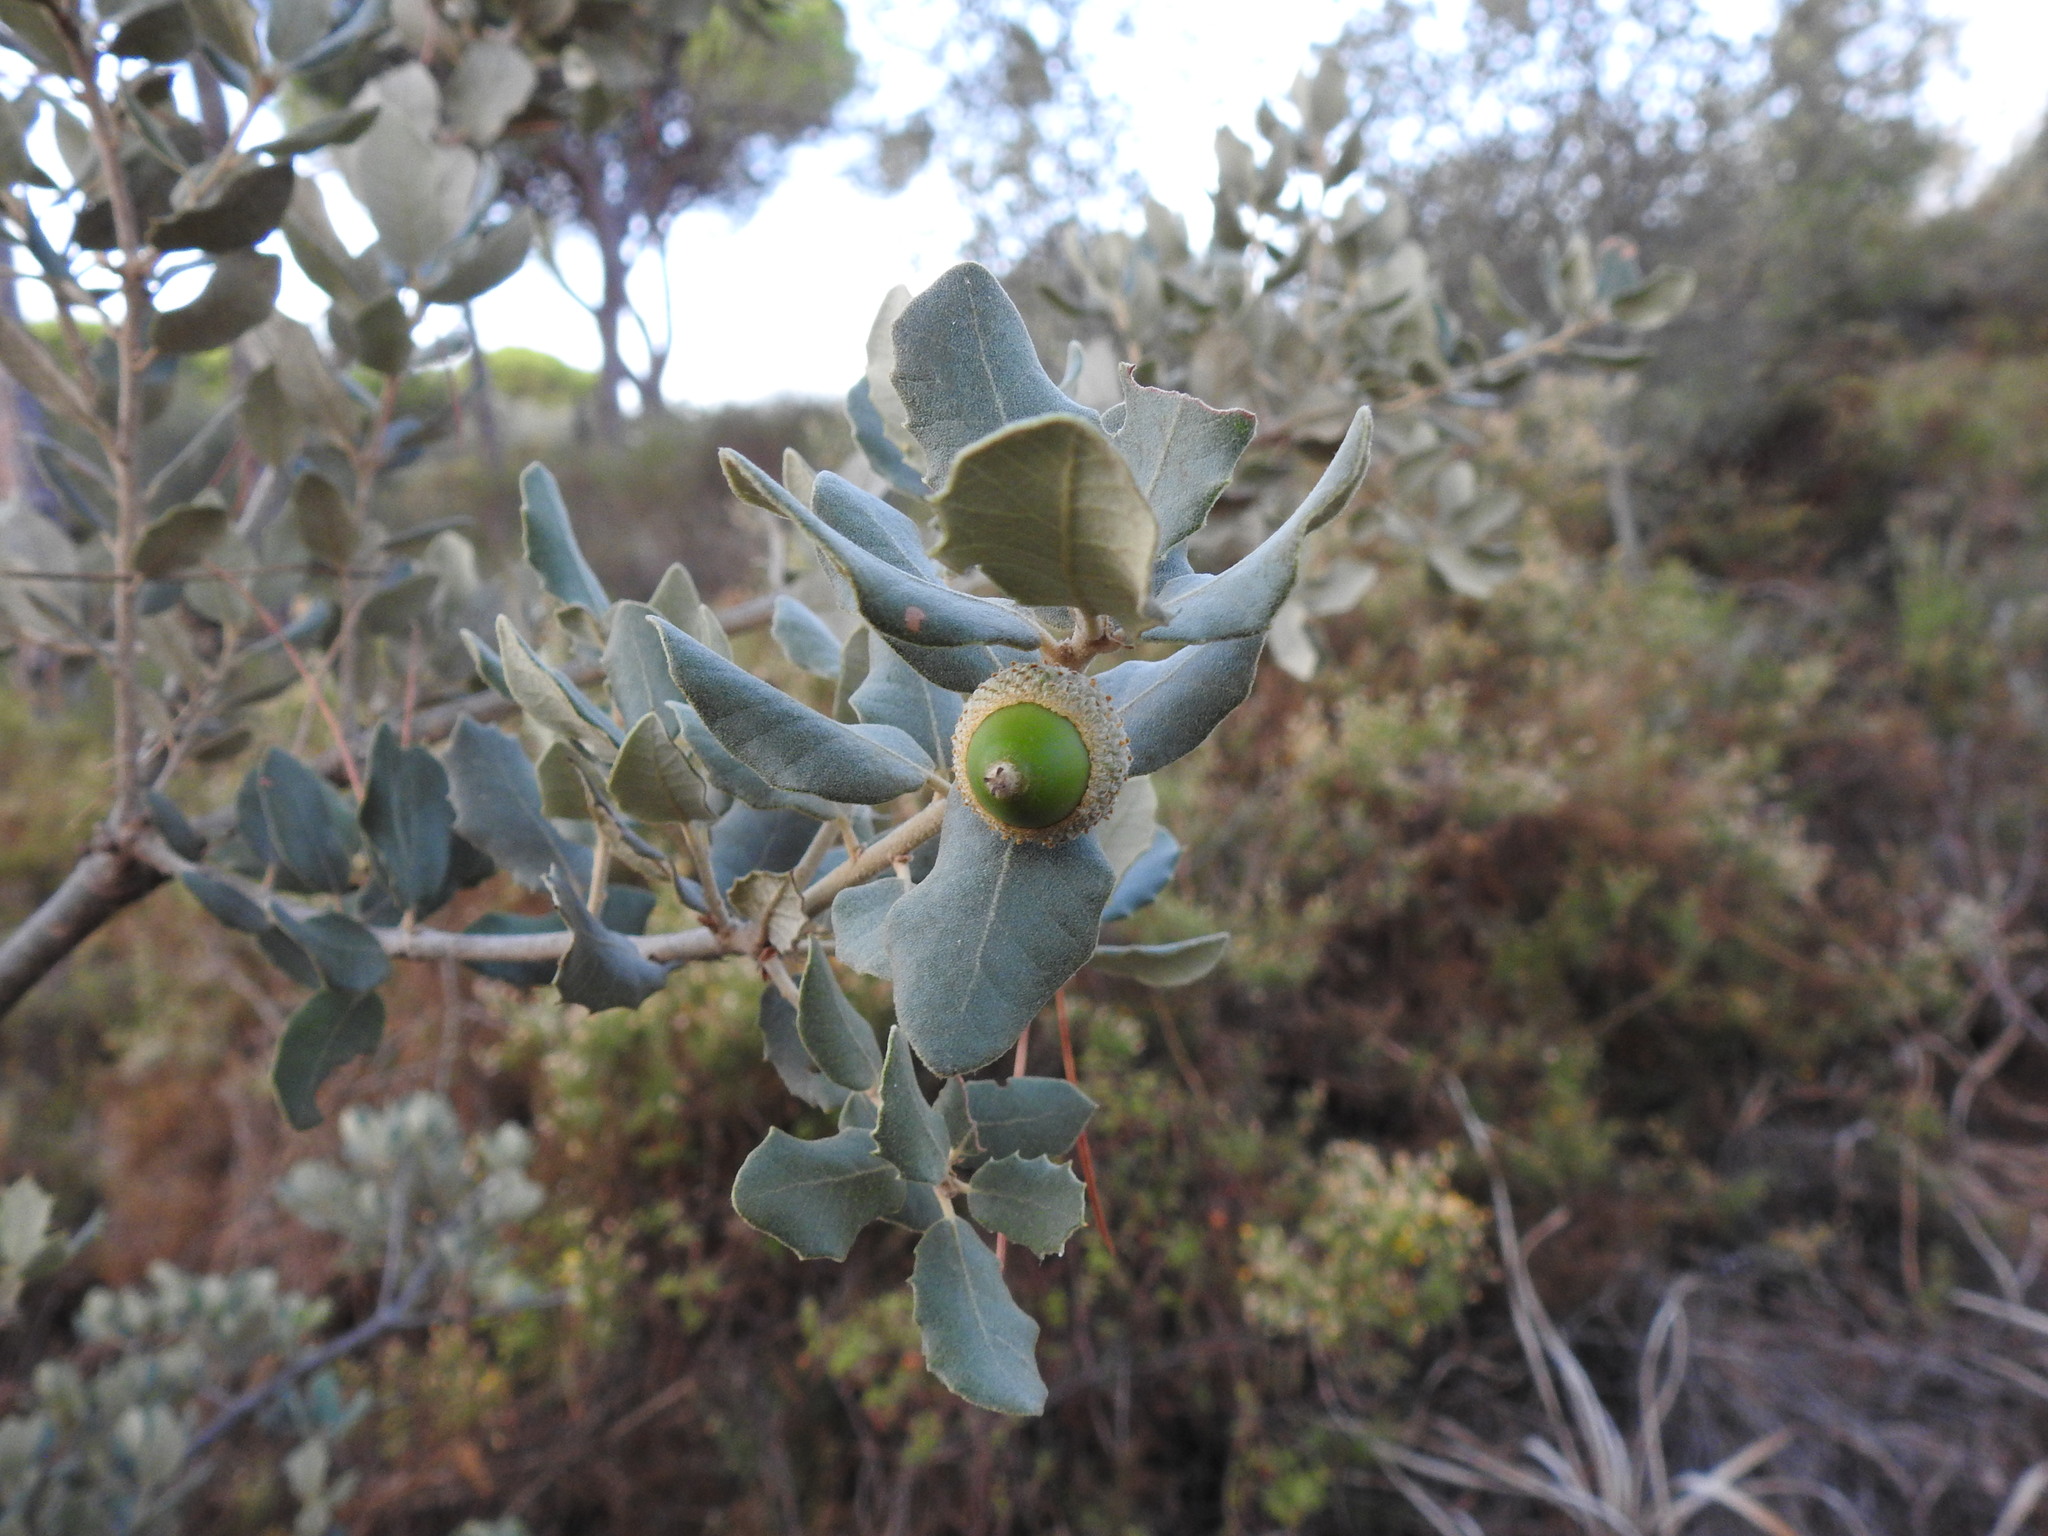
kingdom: Plantae
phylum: Tracheophyta
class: Magnoliopsida
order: Fagales
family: Fagaceae
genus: Quercus
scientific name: Quercus rotundifolia
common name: Holm oak
